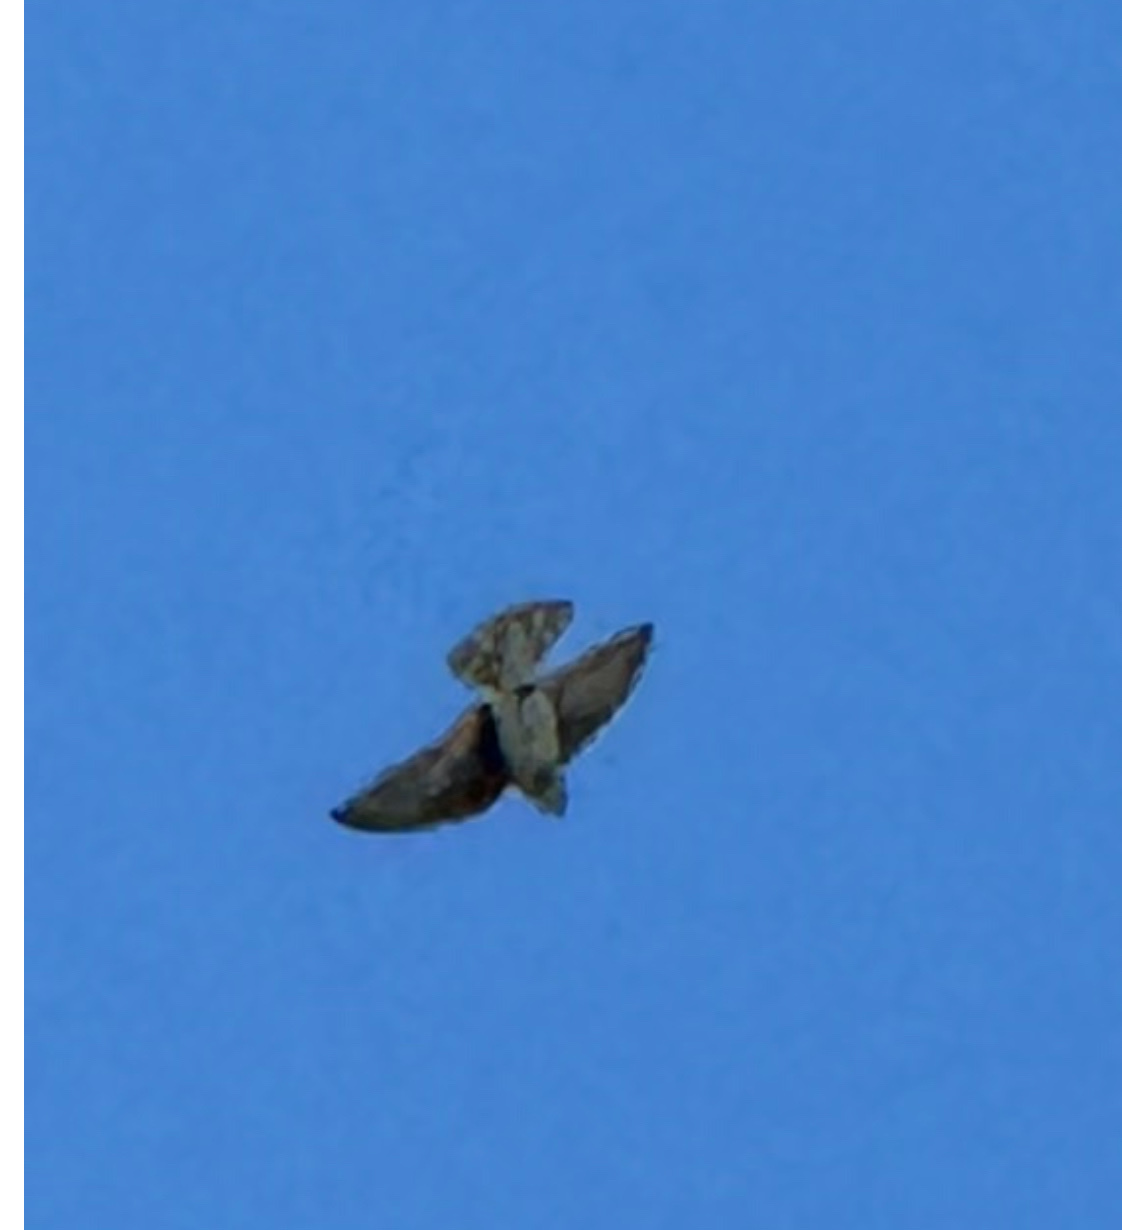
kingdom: Animalia
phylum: Chordata
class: Aves
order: Passeriformes
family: Hirundinidae
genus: Tachycineta
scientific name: Tachycineta bicolor
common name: Tree swallow
